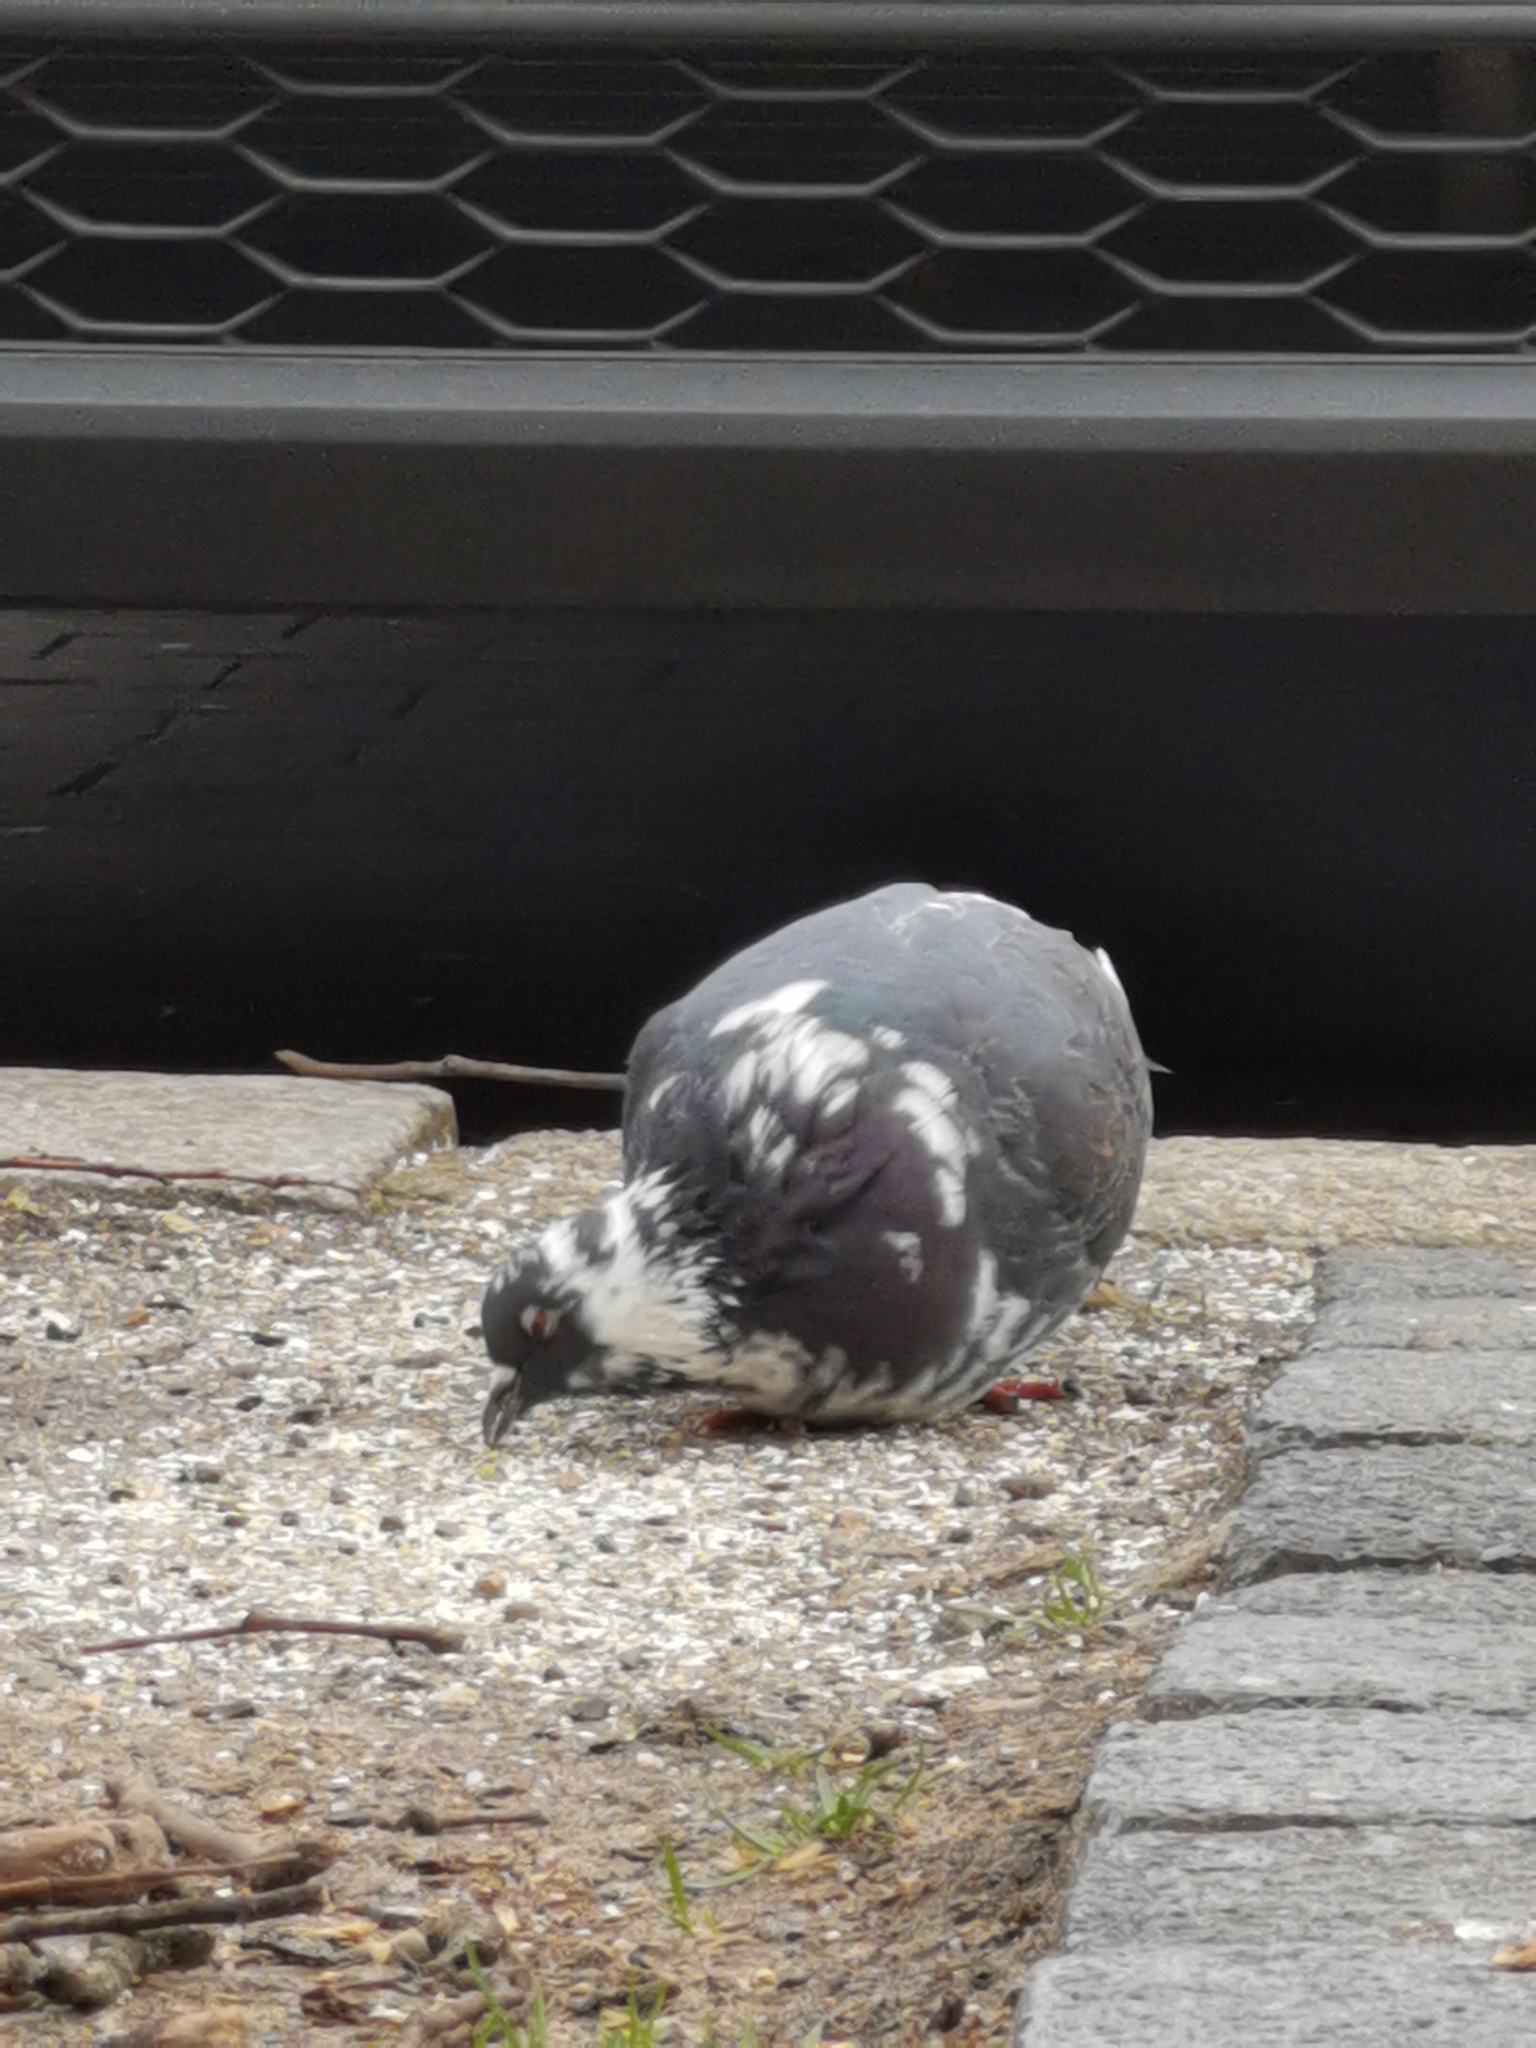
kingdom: Animalia
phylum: Chordata
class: Aves
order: Columbiformes
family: Columbidae
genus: Columba
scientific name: Columba livia
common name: Rock pigeon
